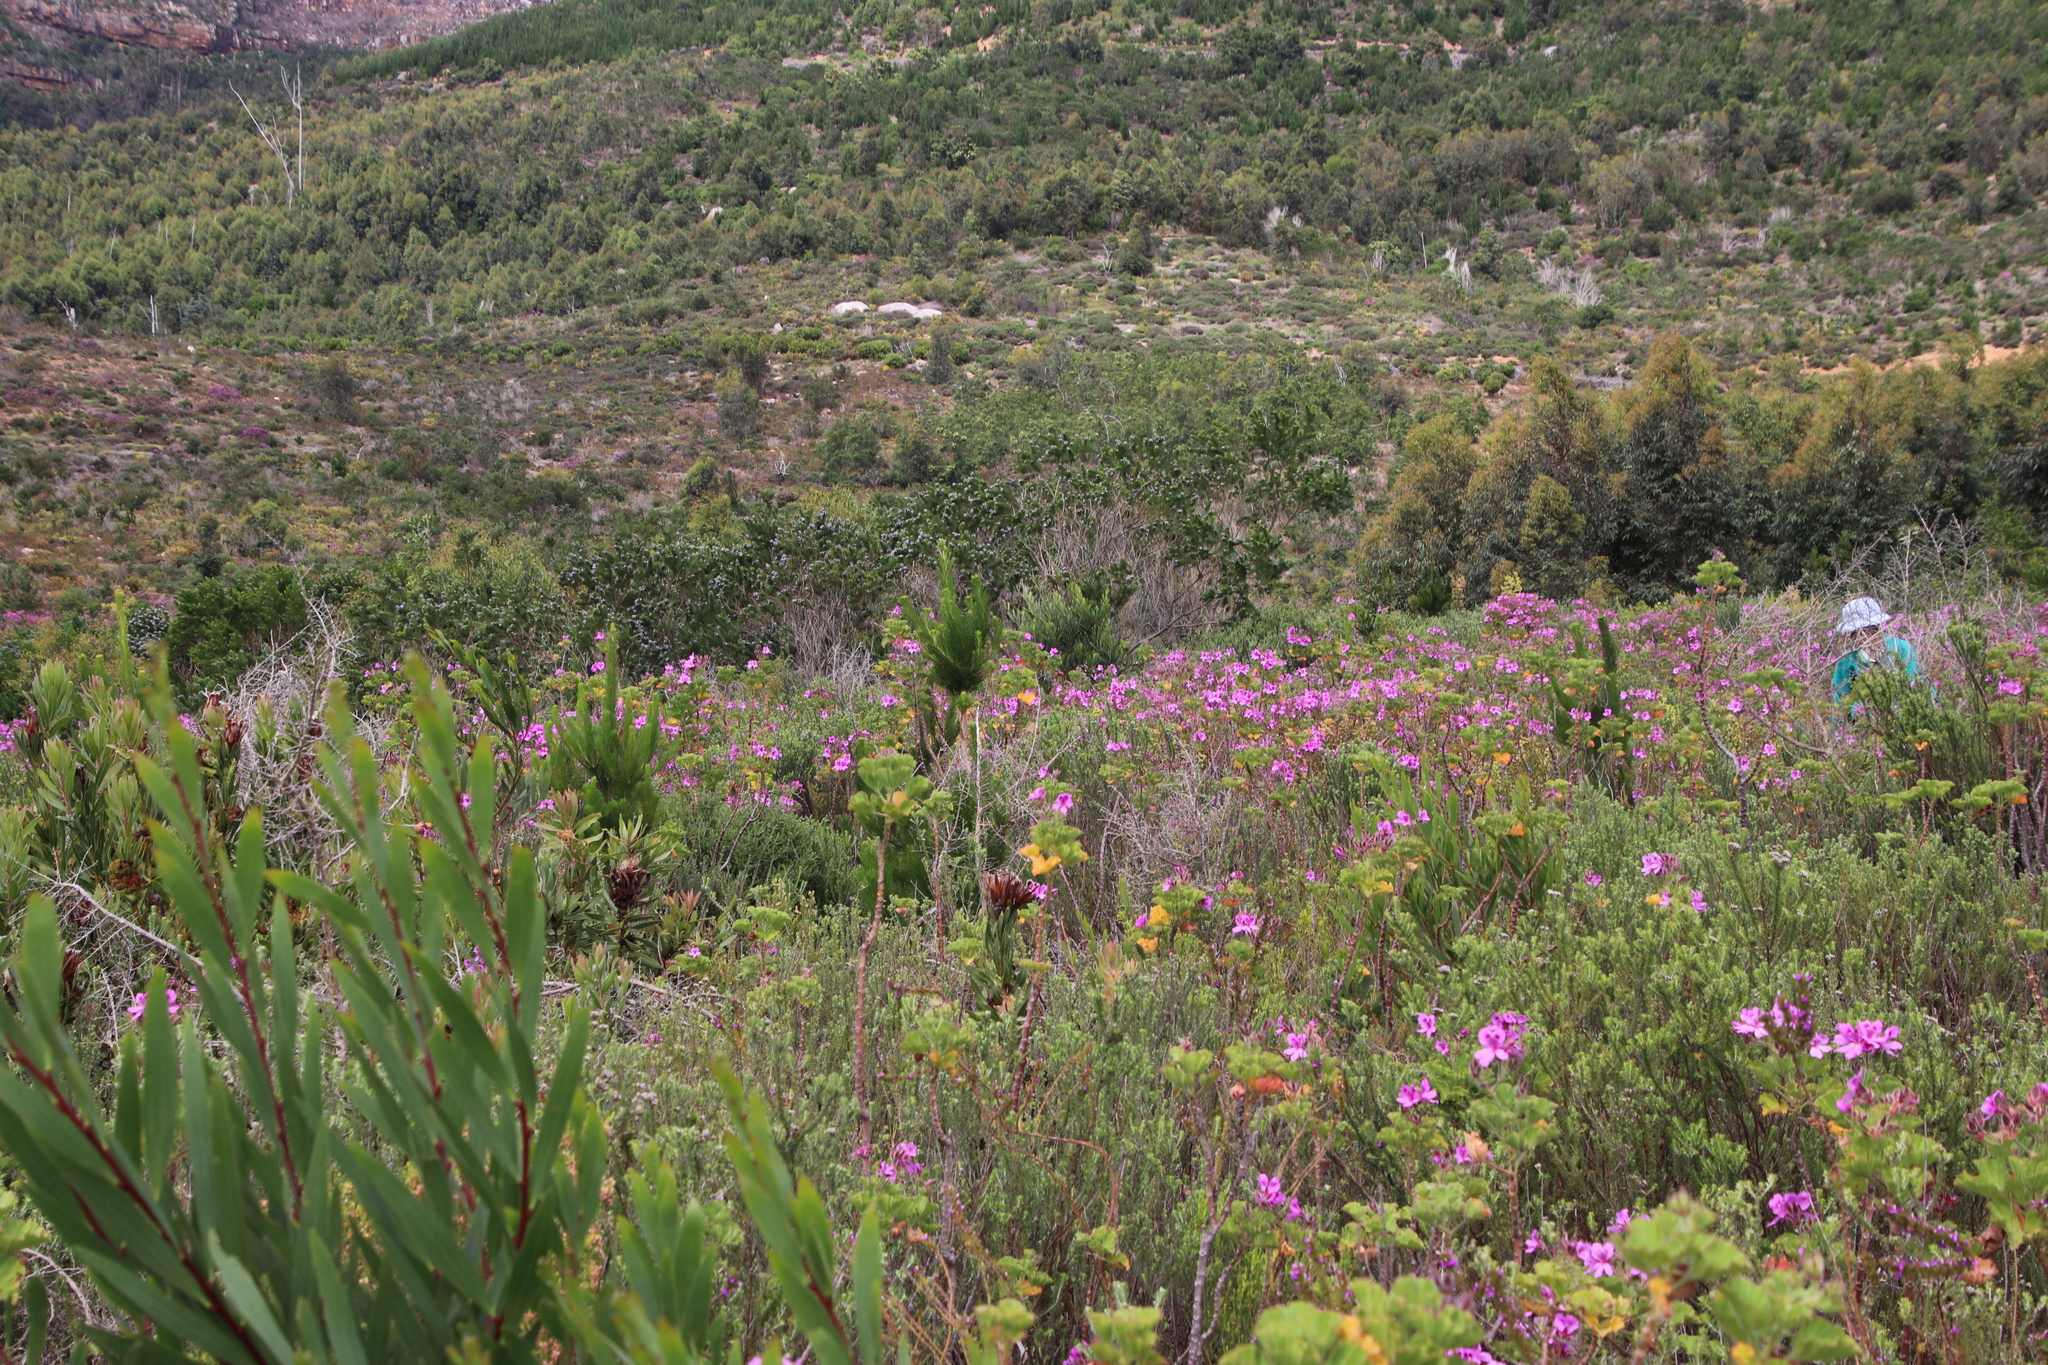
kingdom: Plantae
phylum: Tracheophyta
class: Pinopsida
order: Pinales
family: Pinaceae
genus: Pinus
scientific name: Pinus radiata
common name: Monterey pine
